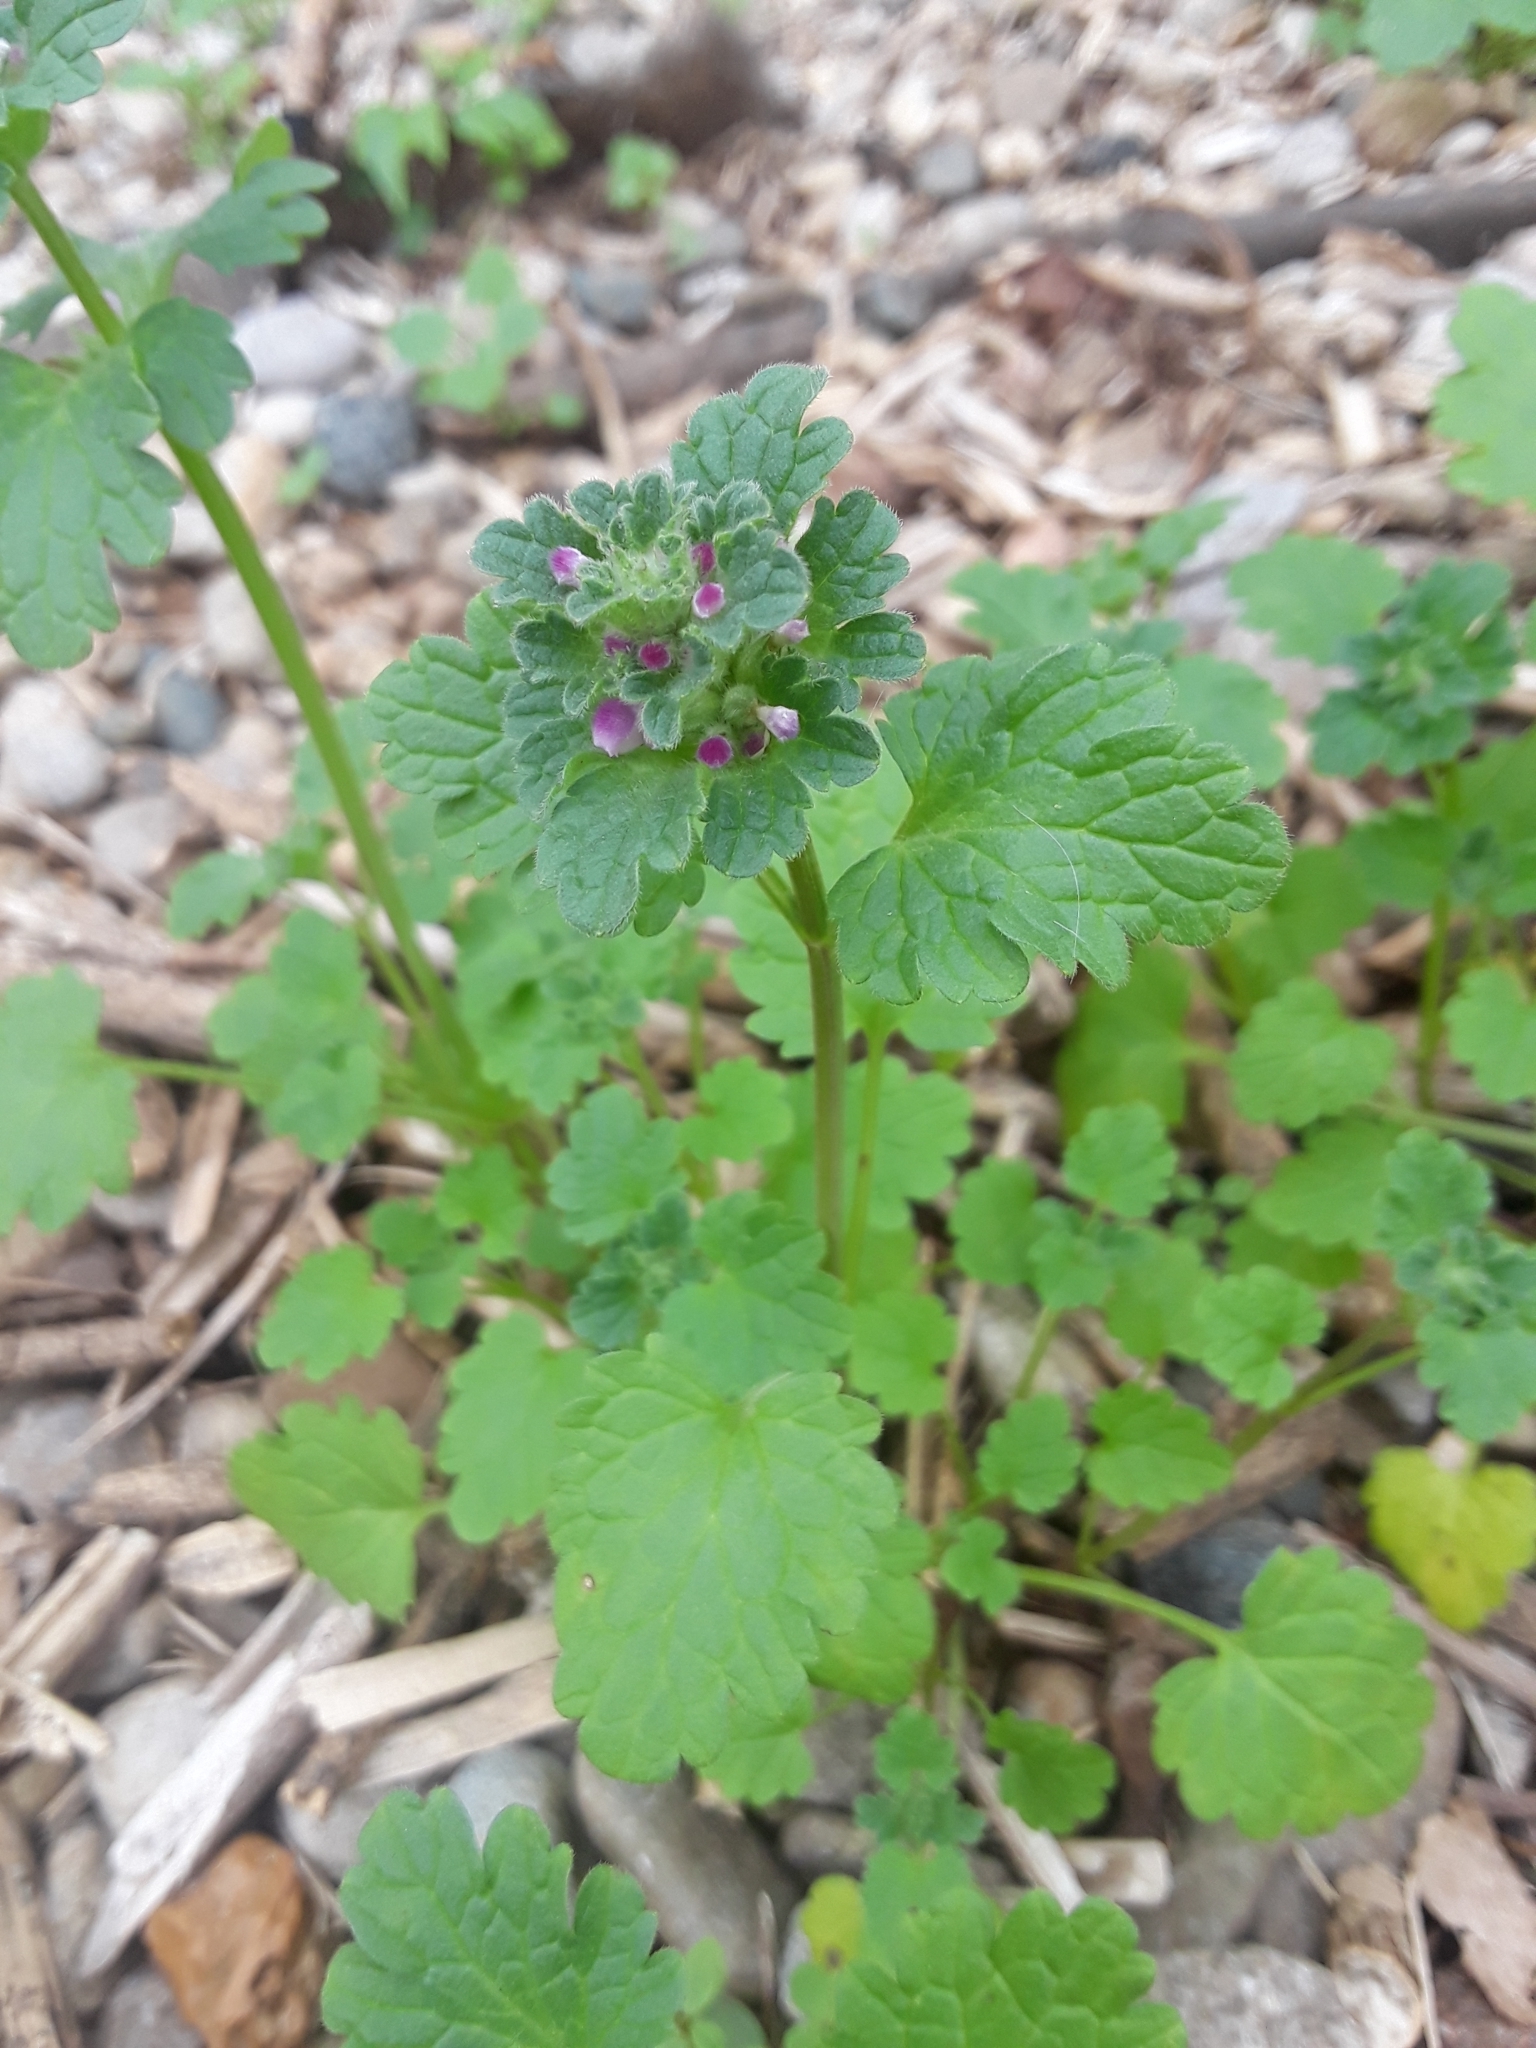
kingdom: Plantae
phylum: Tracheophyta
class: Magnoliopsida
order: Lamiales
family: Lamiaceae
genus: Lamium
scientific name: Lamium amplexicaule
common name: Henbit dead-nettle
